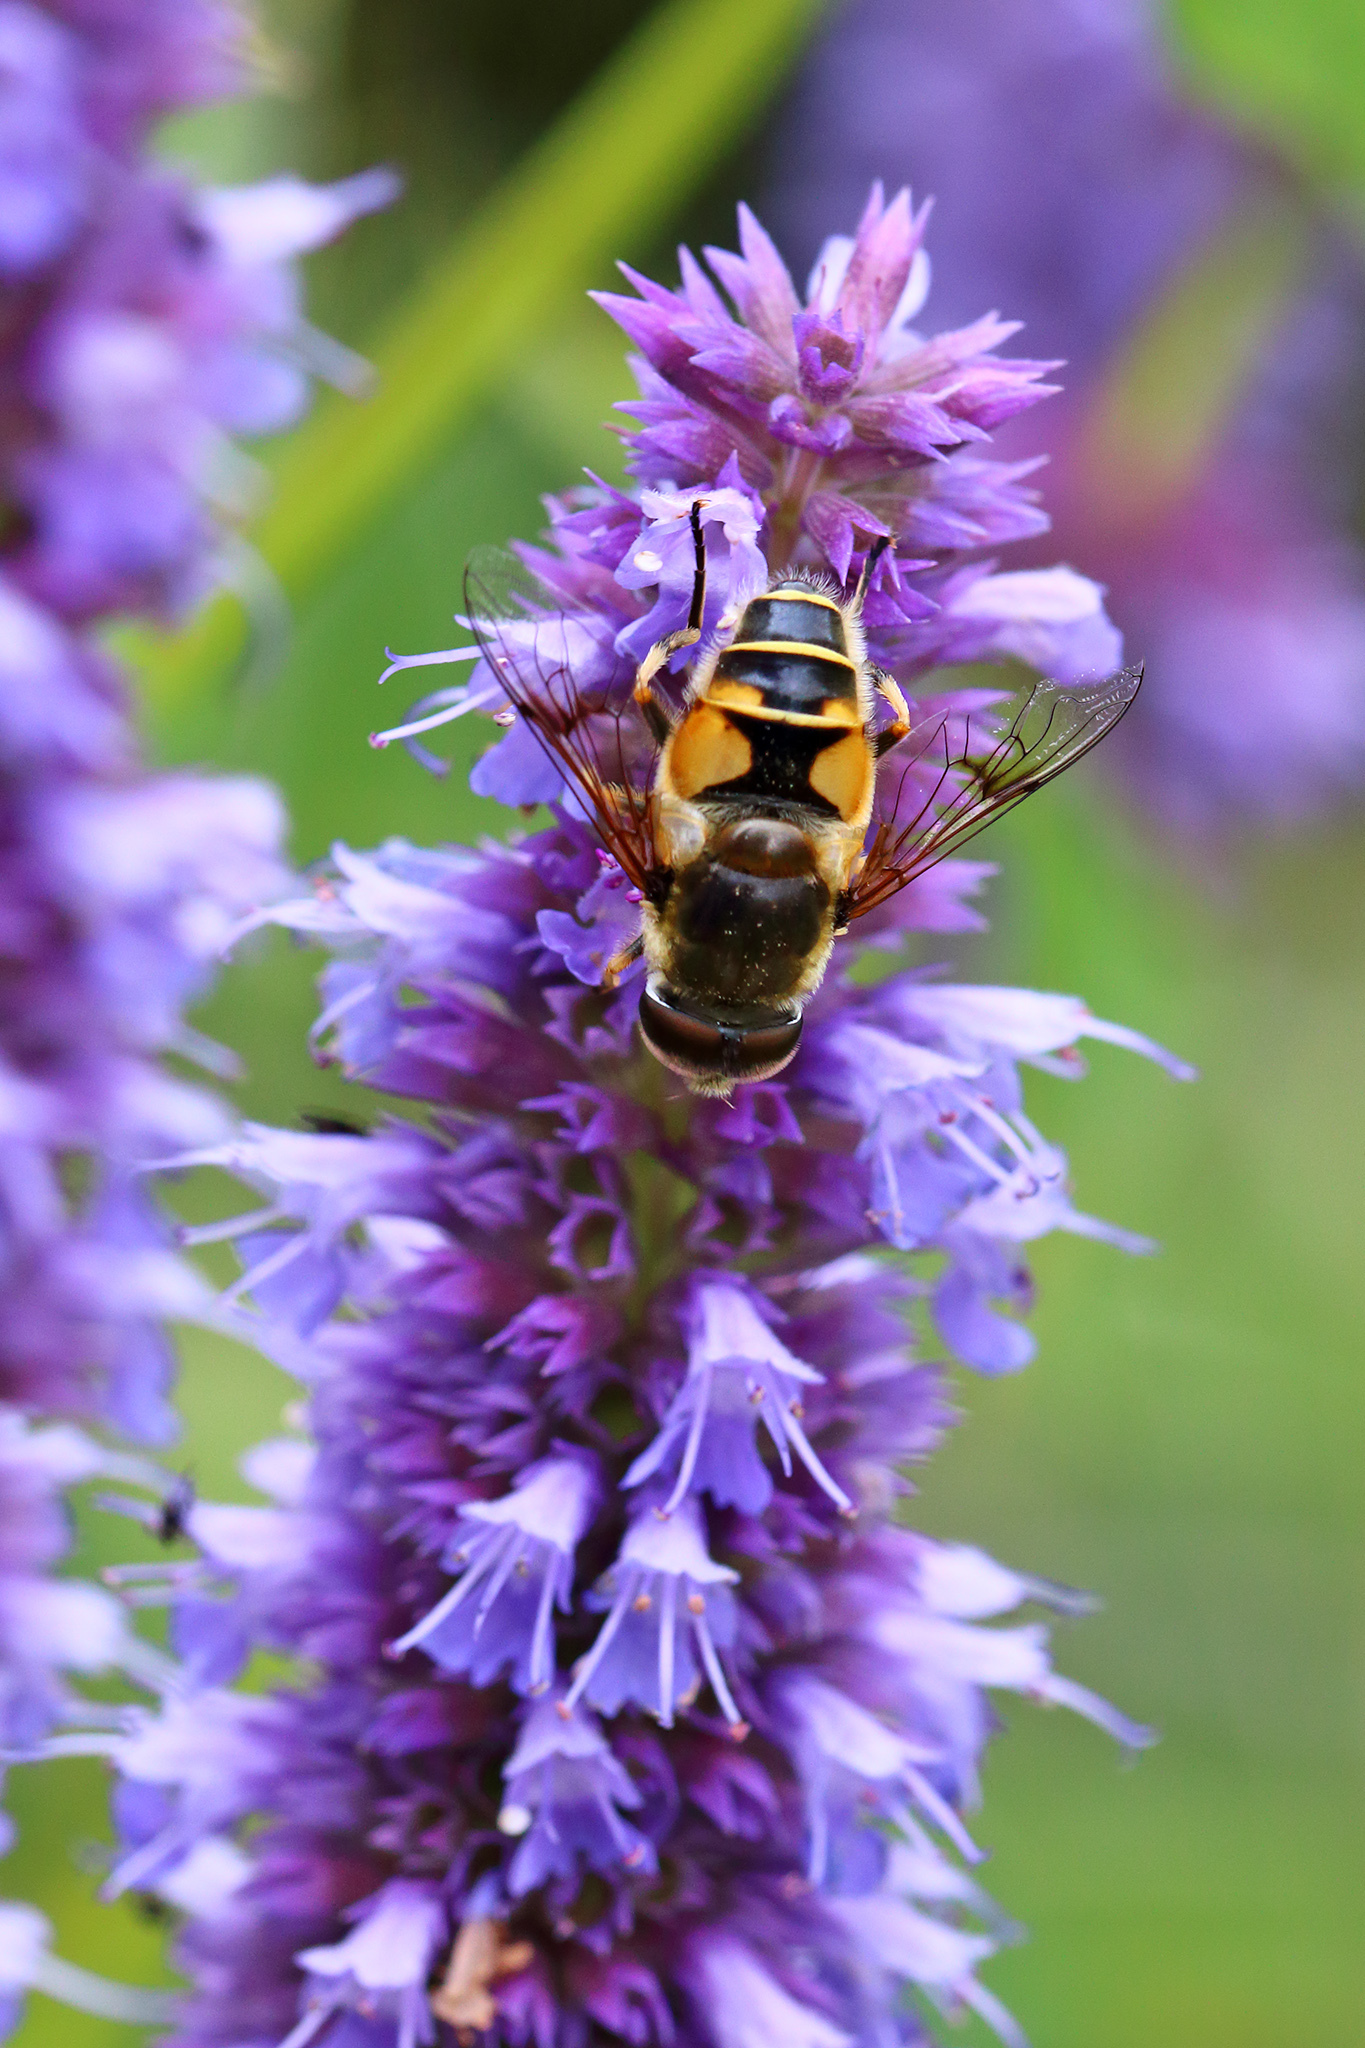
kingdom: Animalia
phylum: Arthropoda
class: Insecta
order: Diptera
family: Syrphidae
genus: Cheilosia
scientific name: Cheilosia morio
